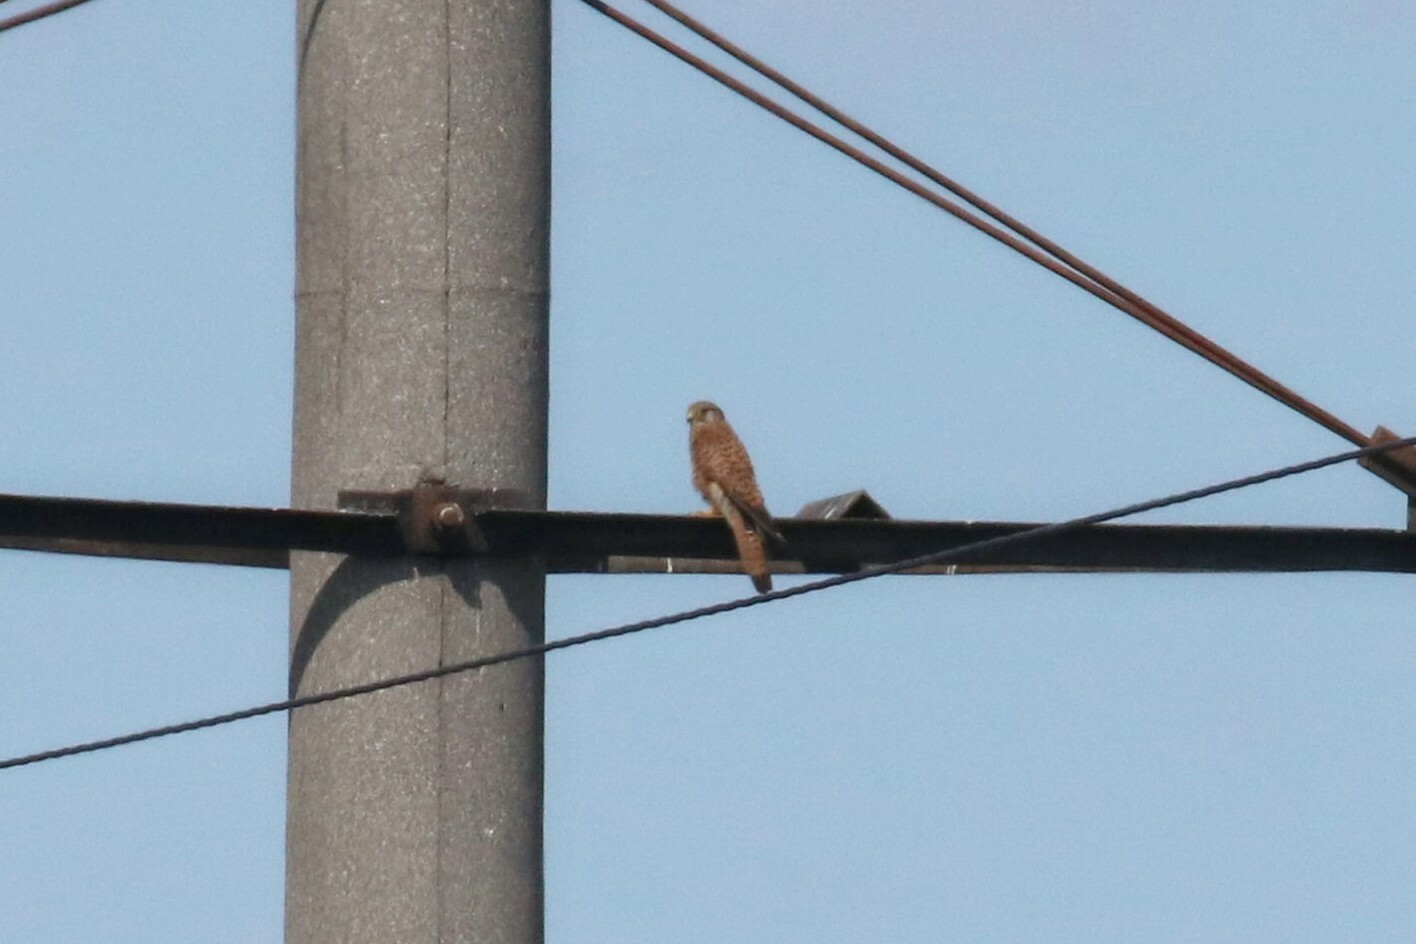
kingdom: Animalia
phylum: Chordata
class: Aves
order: Falconiformes
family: Falconidae
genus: Falco
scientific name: Falco tinnunculus
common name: Common kestrel
